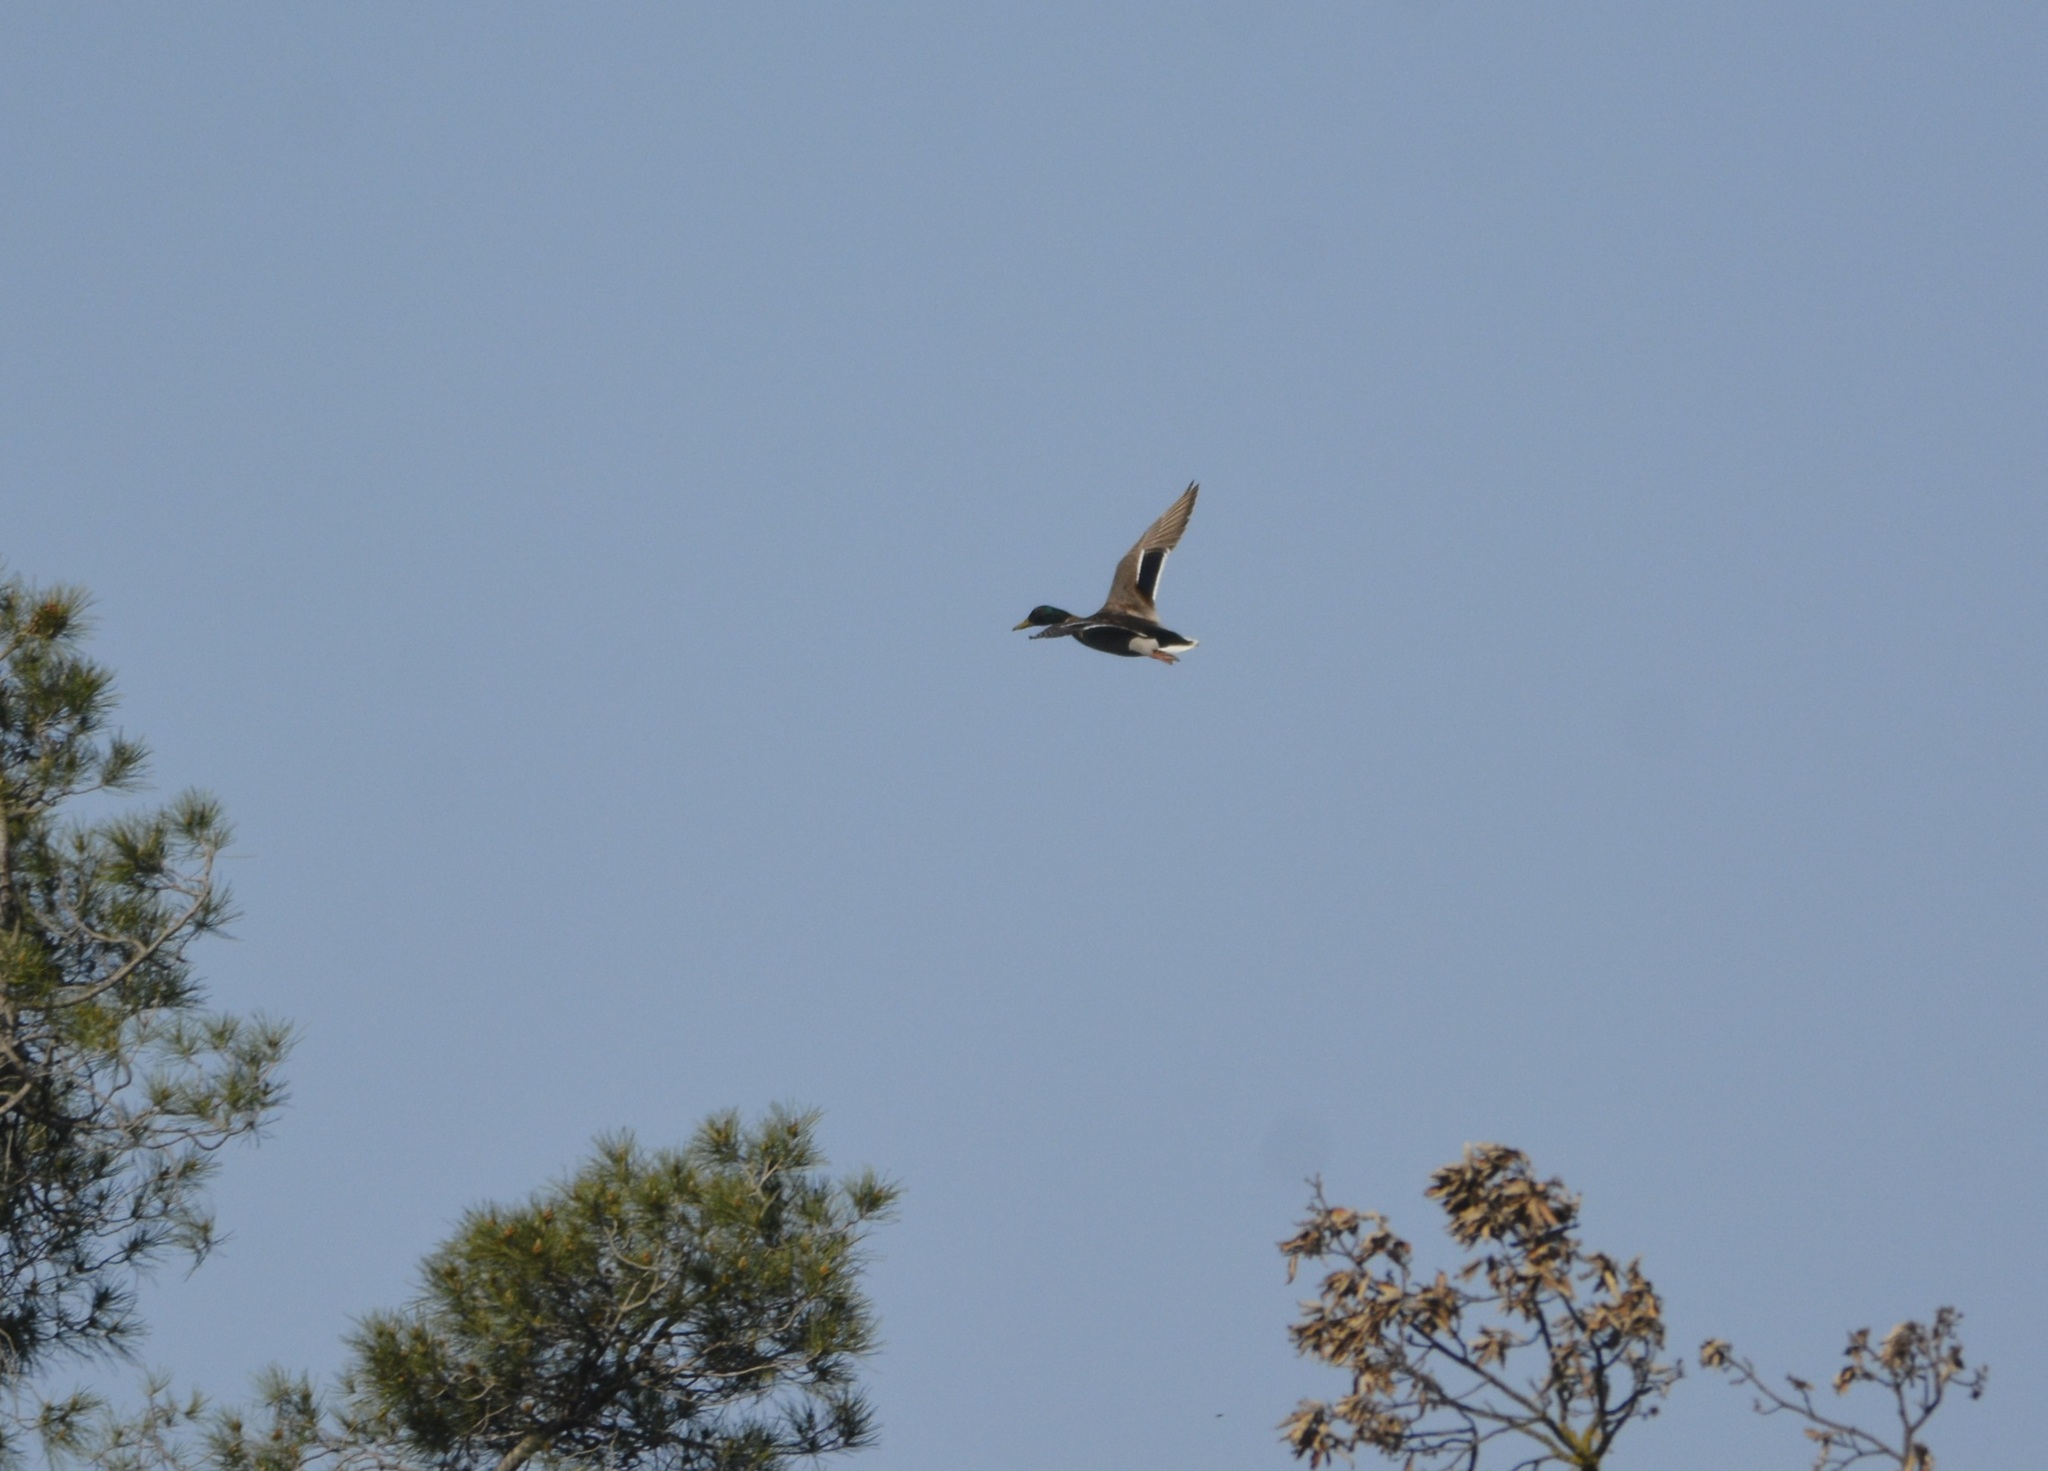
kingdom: Animalia
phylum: Chordata
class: Aves
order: Anseriformes
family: Anatidae
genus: Anas
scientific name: Anas platyrhynchos
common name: Mallard
